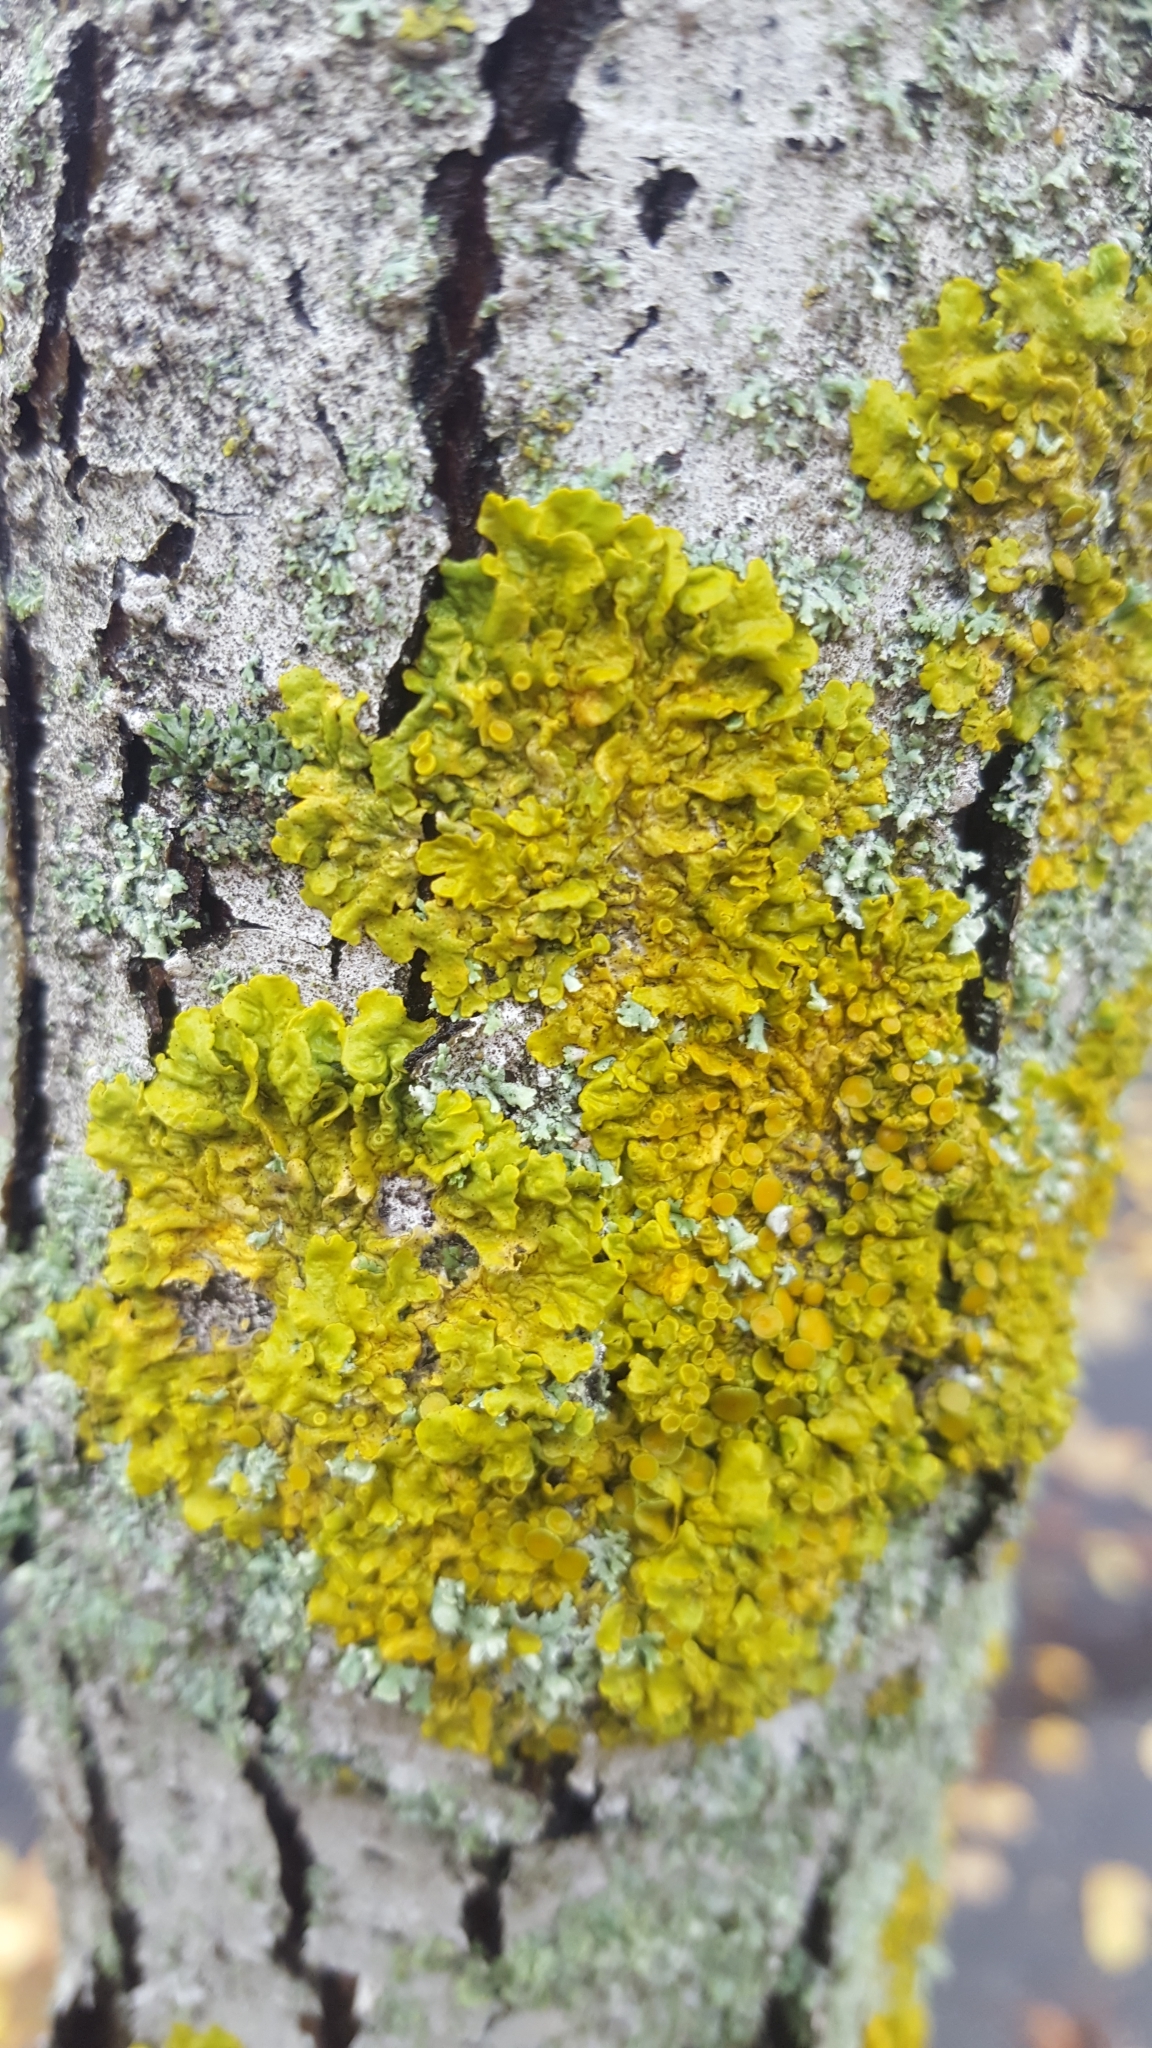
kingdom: Fungi
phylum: Ascomycota
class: Lecanoromycetes
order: Teloschistales
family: Teloschistaceae
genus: Xanthoria
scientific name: Xanthoria parietina
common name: Common orange lichen
